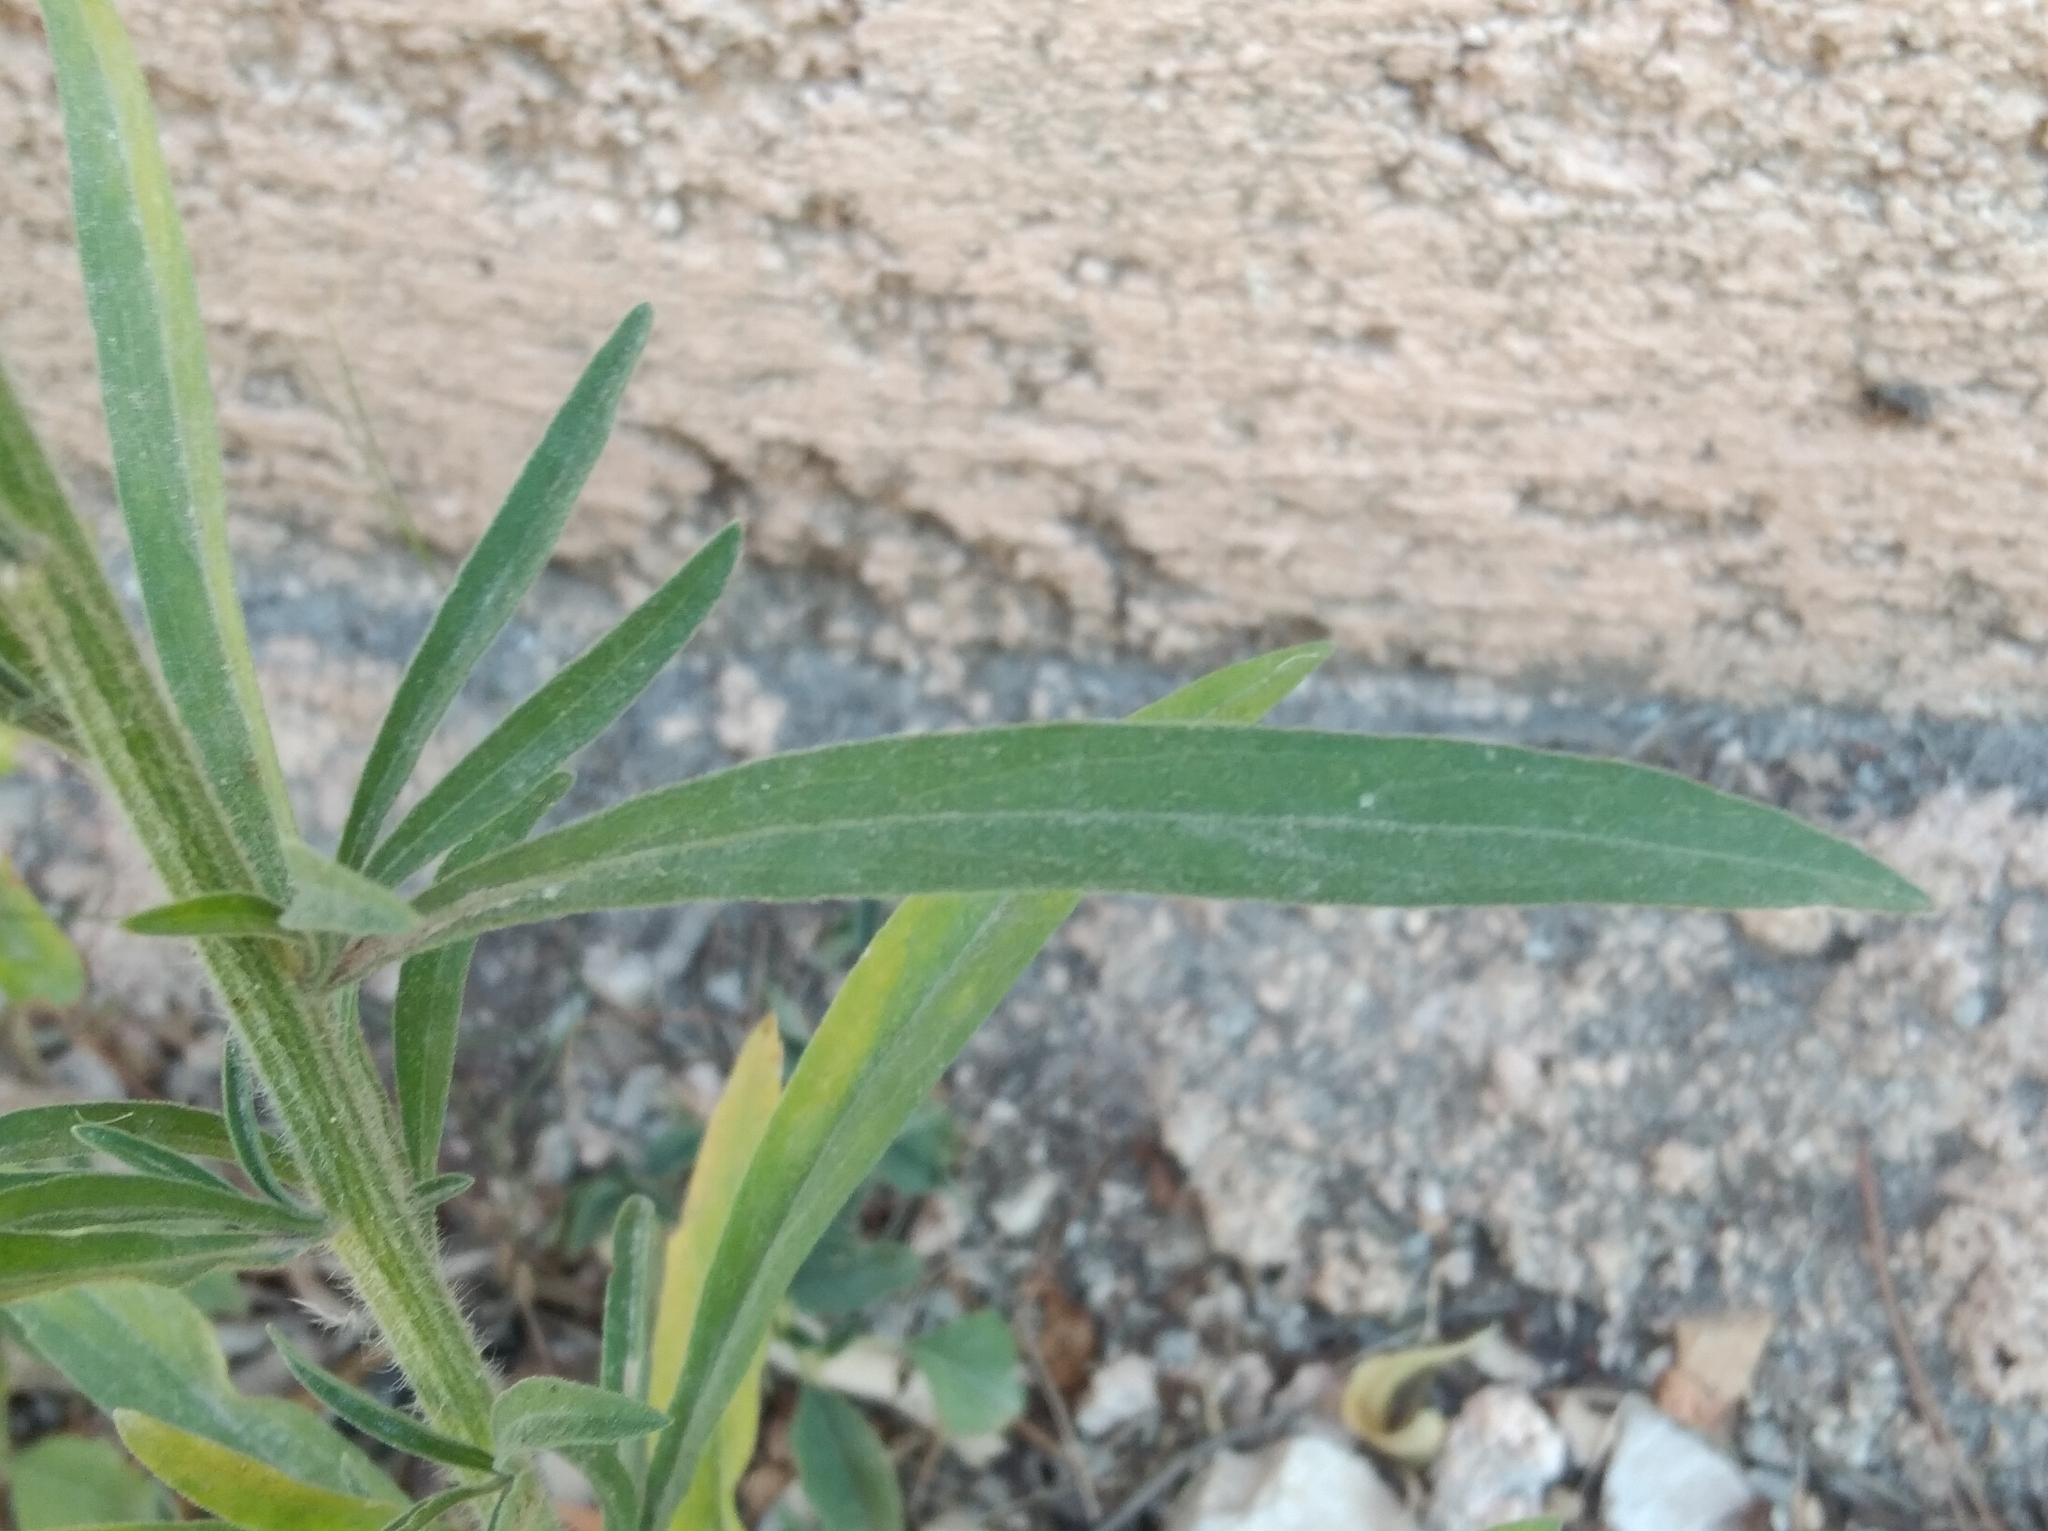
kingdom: Plantae
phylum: Tracheophyta
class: Magnoliopsida
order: Asterales
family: Asteraceae
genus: Erigeron
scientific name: Erigeron bonariensis
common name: Argentine fleabane
